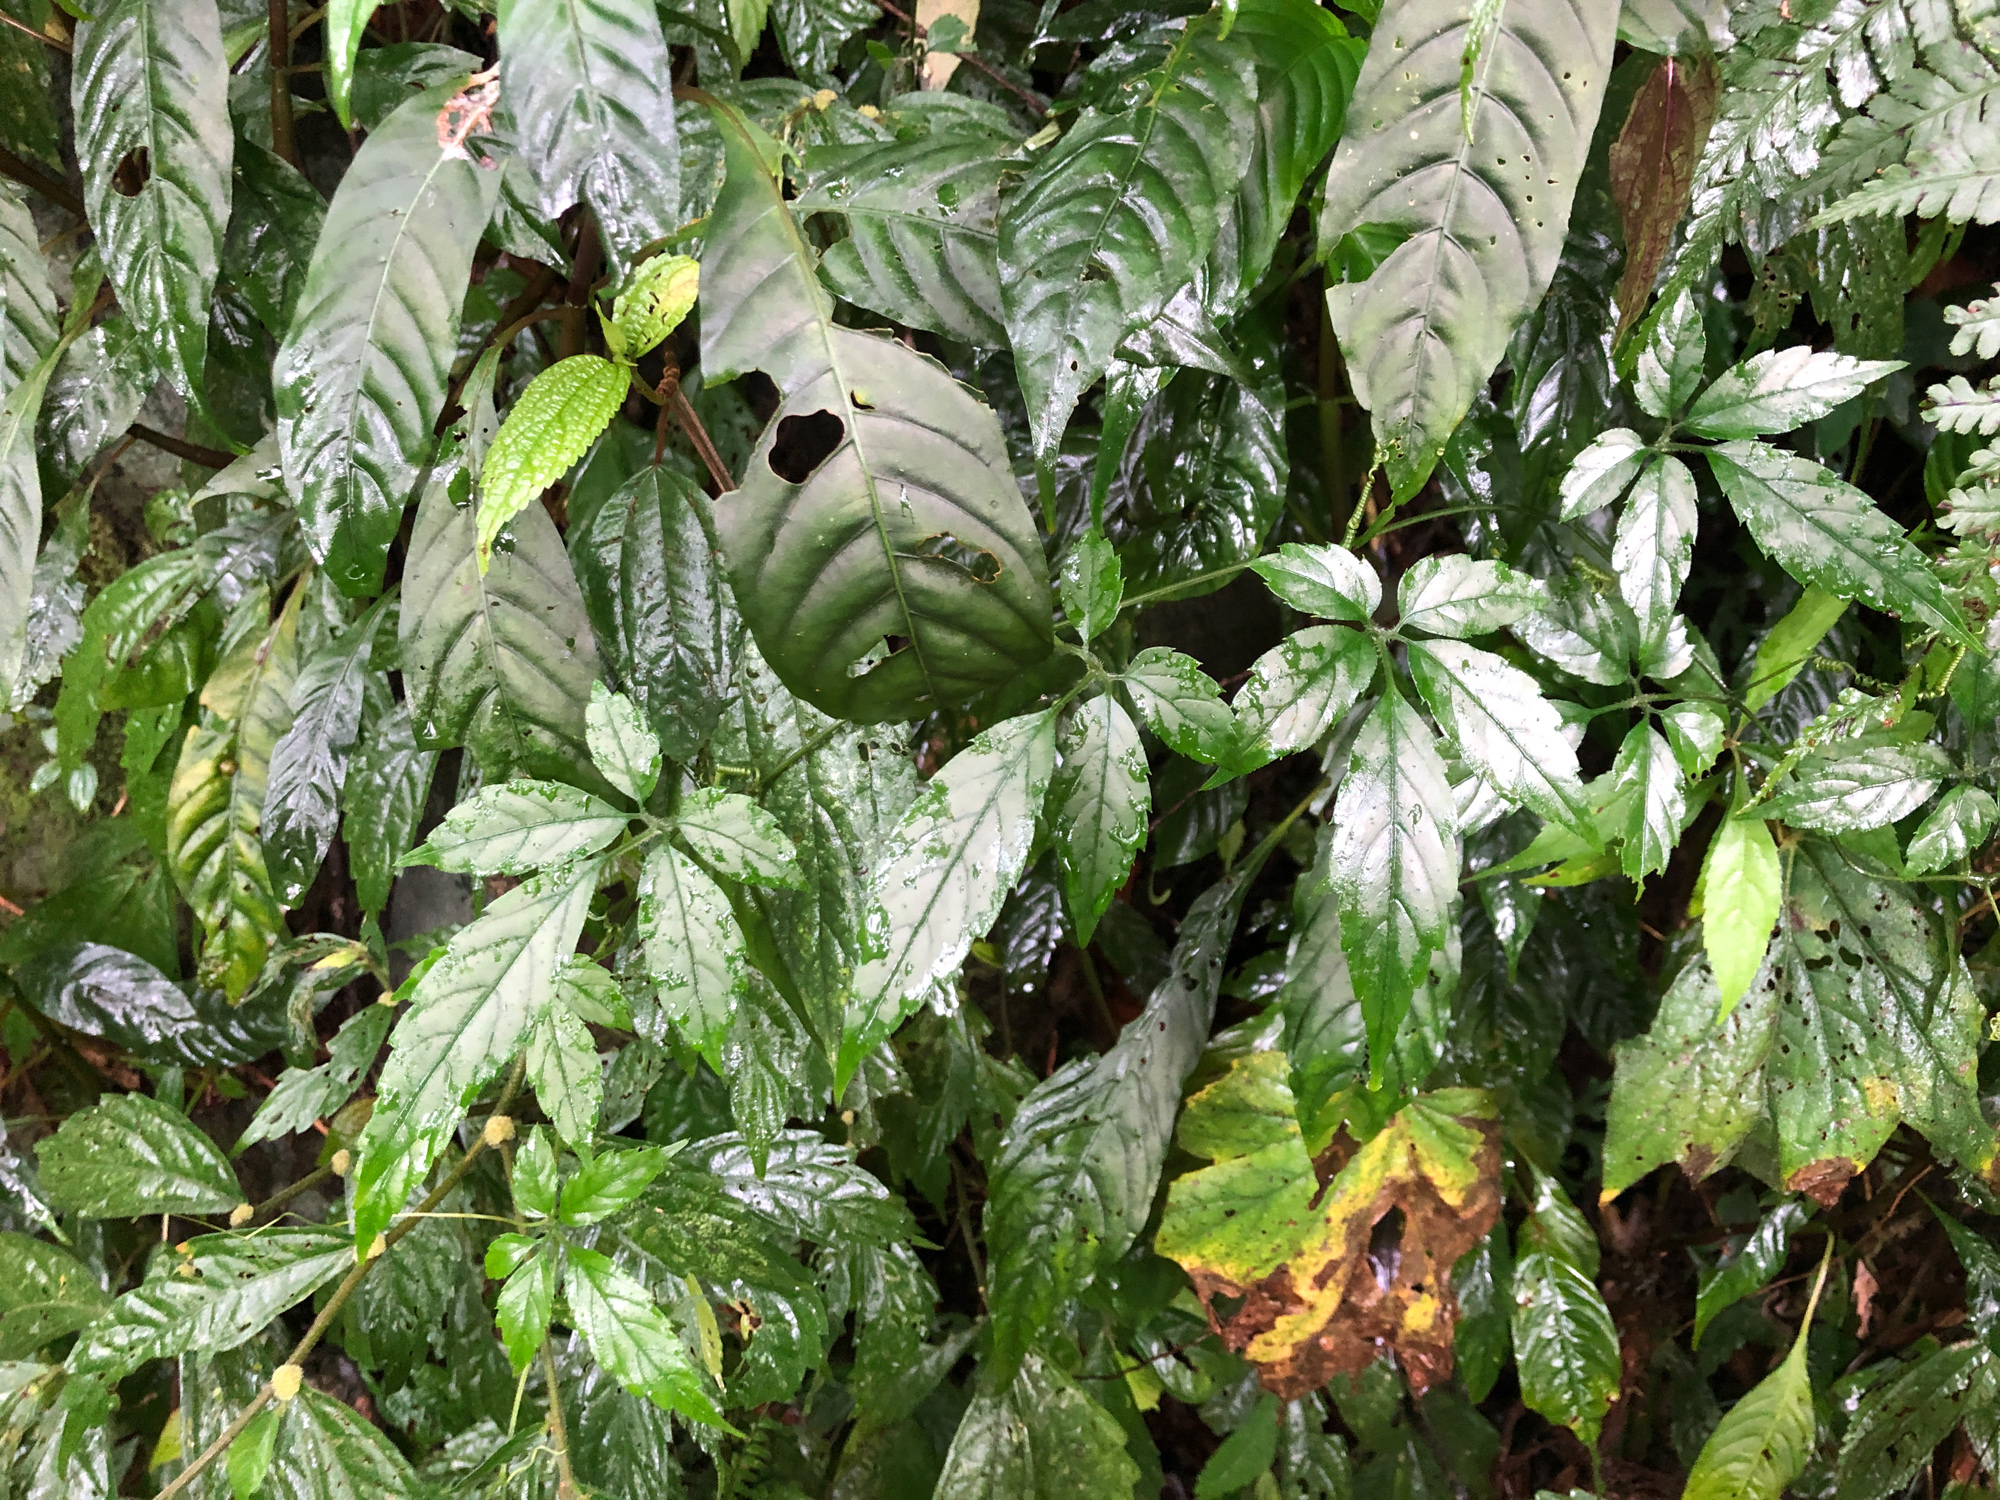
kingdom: Plantae
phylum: Tracheophyta
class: Magnoliopsida
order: Vitales
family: Vitaceae
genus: Causonis
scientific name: Causonis corniculata
